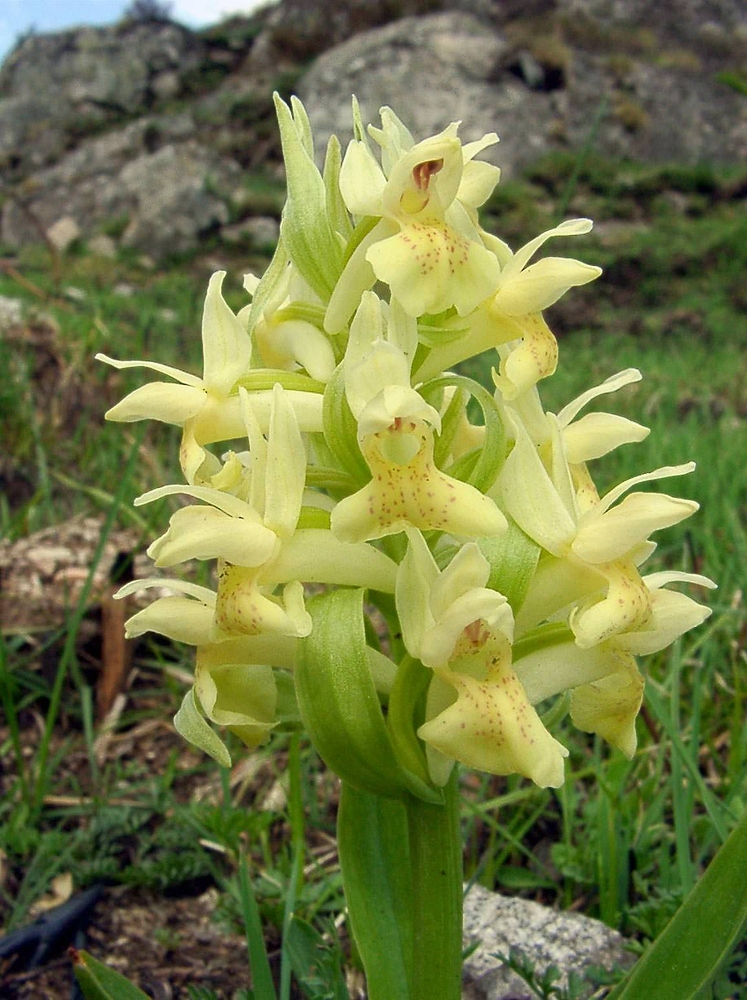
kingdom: Plantae
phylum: Tracheophyta
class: Liliopsida
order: Asparagales
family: Orchidaceae
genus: Dactylorhiza
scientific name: Dactylorhiza sambucina
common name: Elder-flowered orchid
